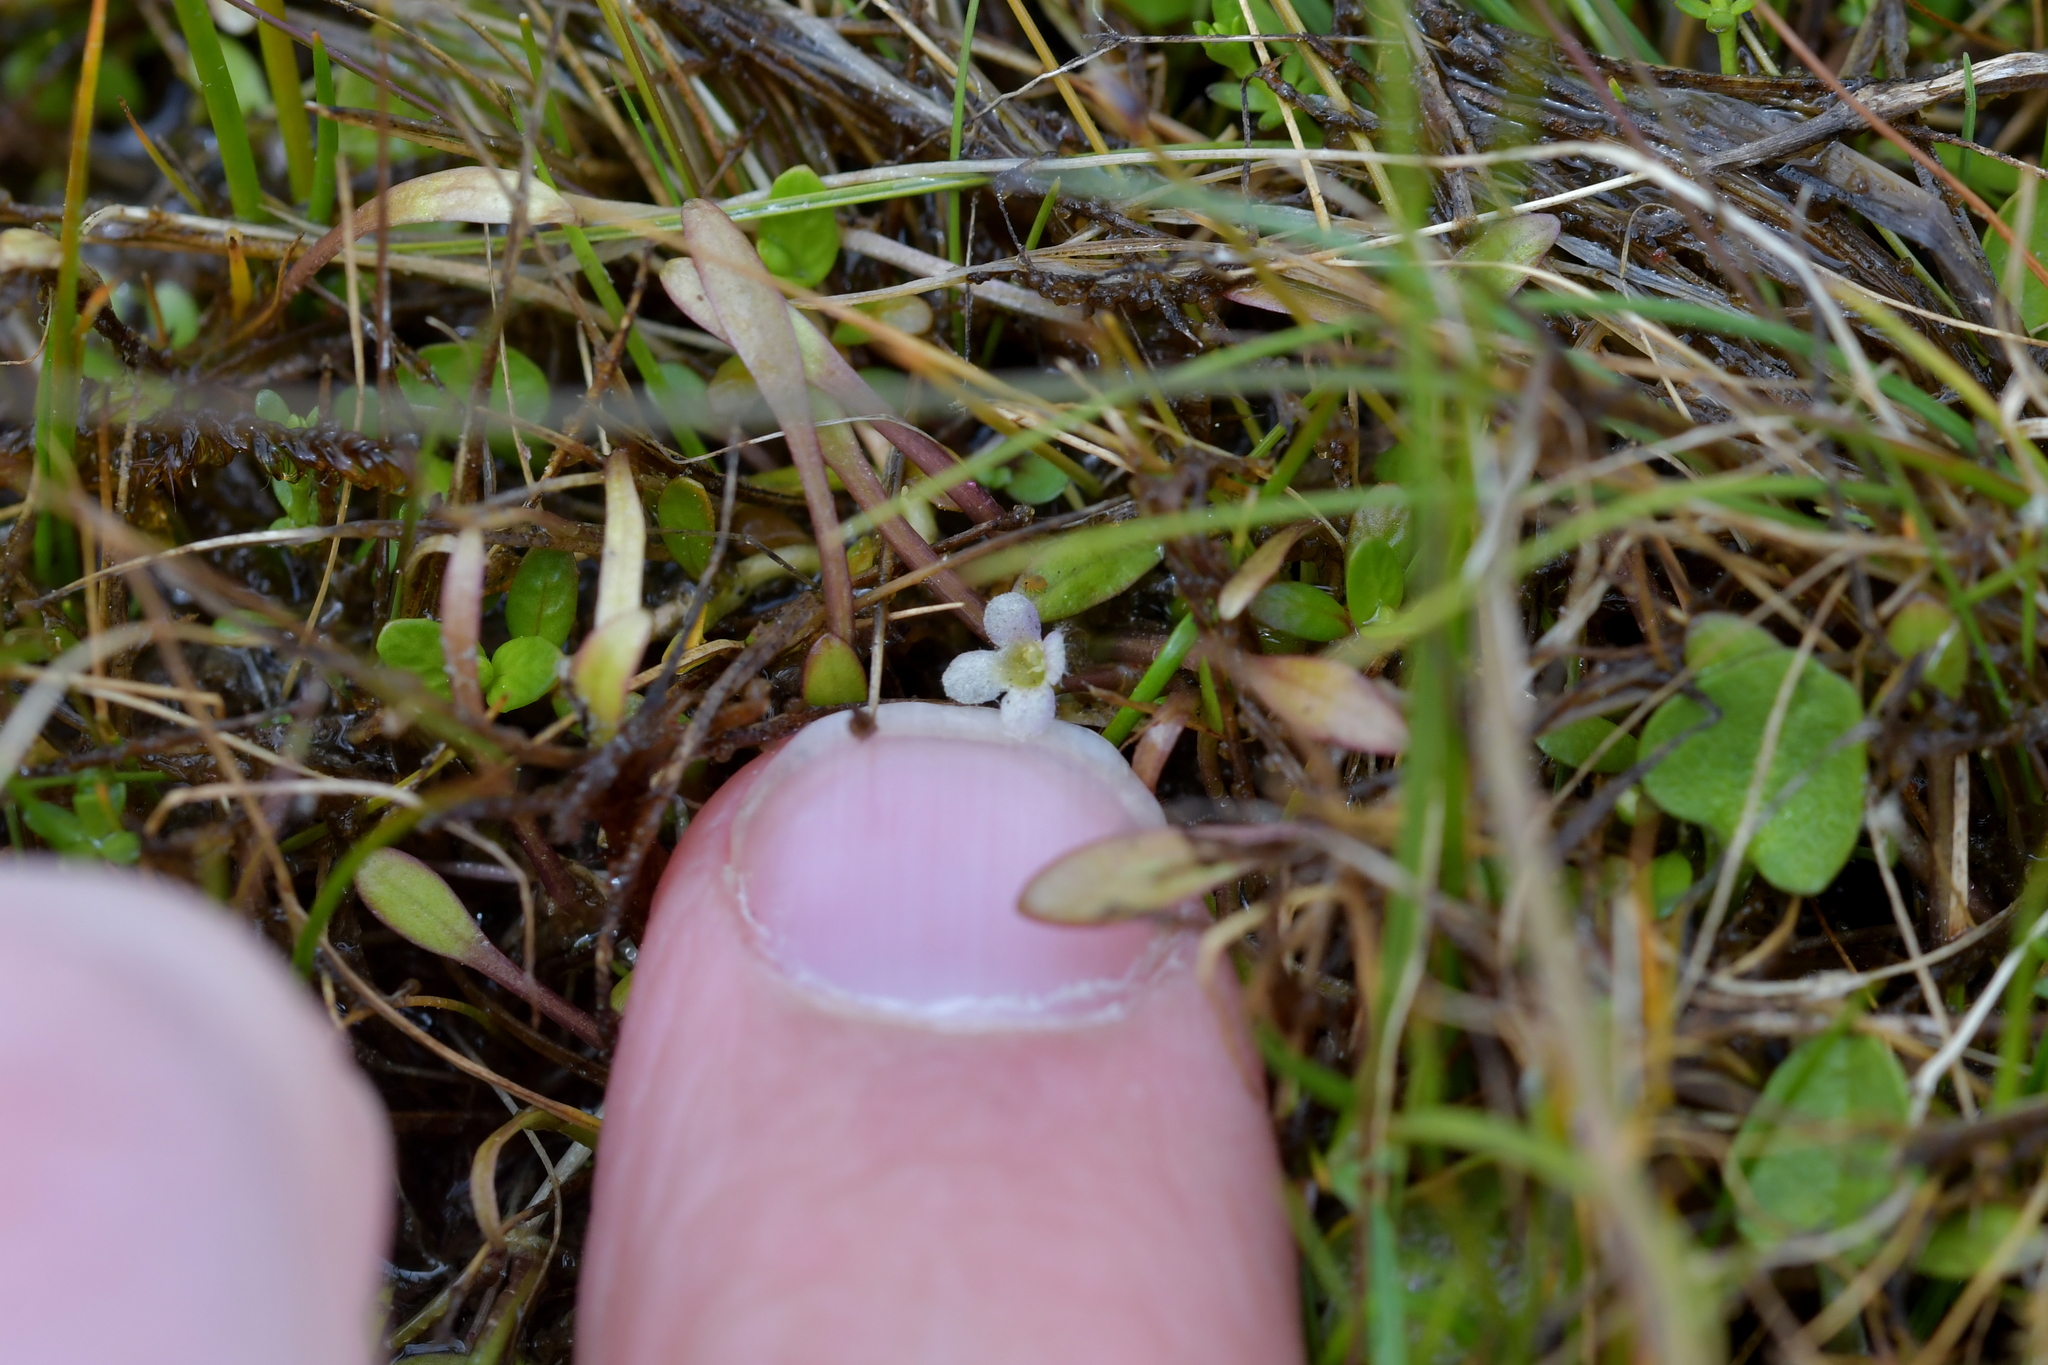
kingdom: Plantae
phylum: Tracheophyta
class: Magnoliopsida
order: Lamiales
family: Phrymaceae
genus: Glossostigma
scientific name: Glossostigma elatinoides
